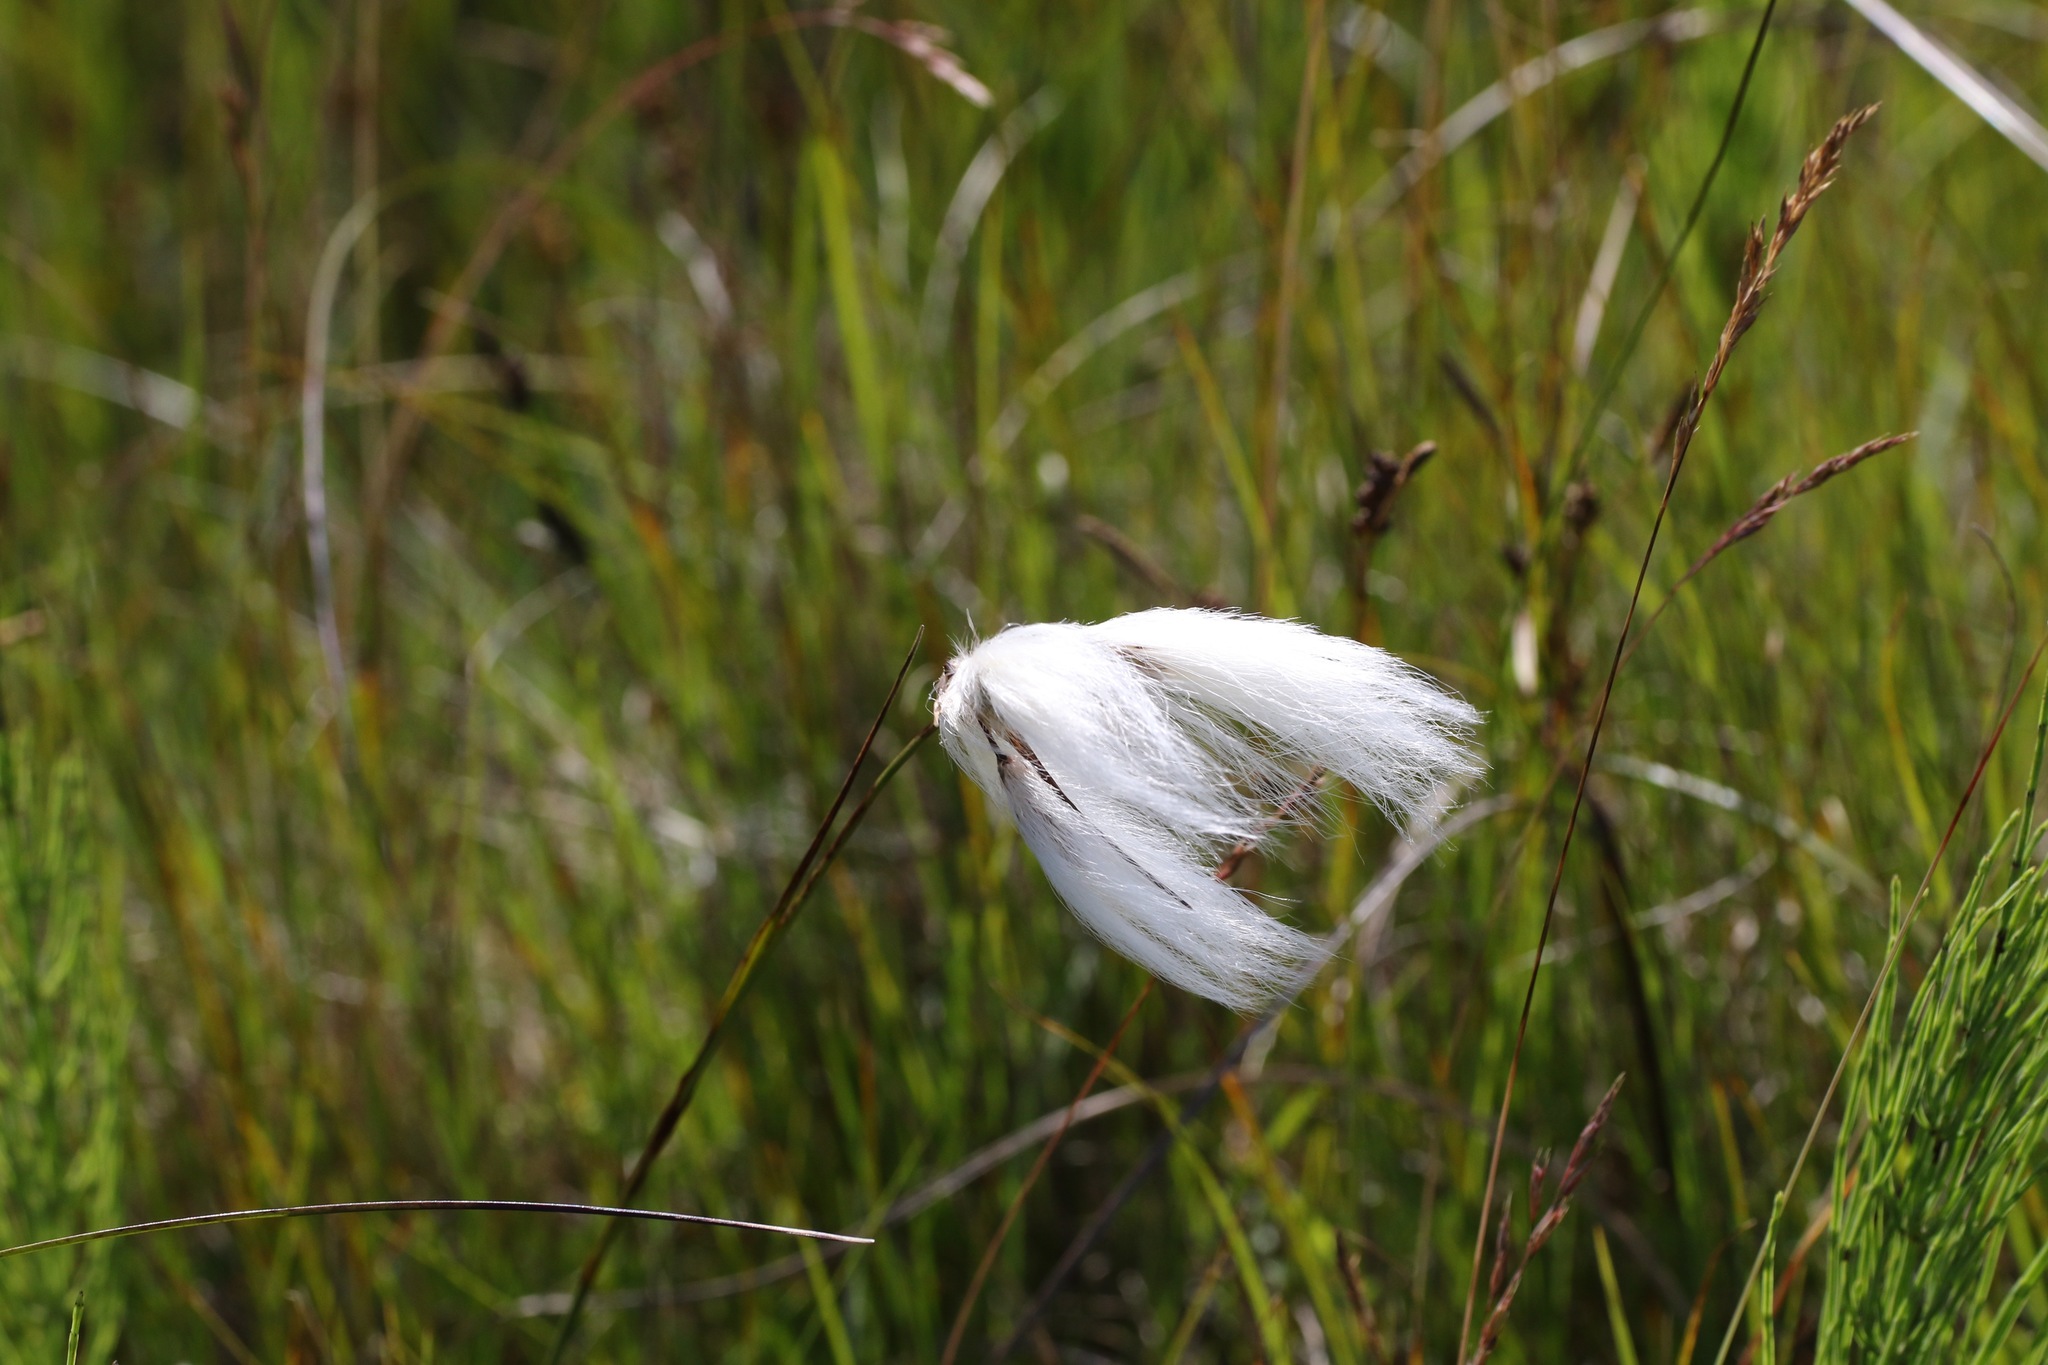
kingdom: Plantae
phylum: Tracheophyta
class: Liliopsida
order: Poales
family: Cyperaceae
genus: Eriophorum
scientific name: Eriophorum angustifolium
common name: Common cottongrass
